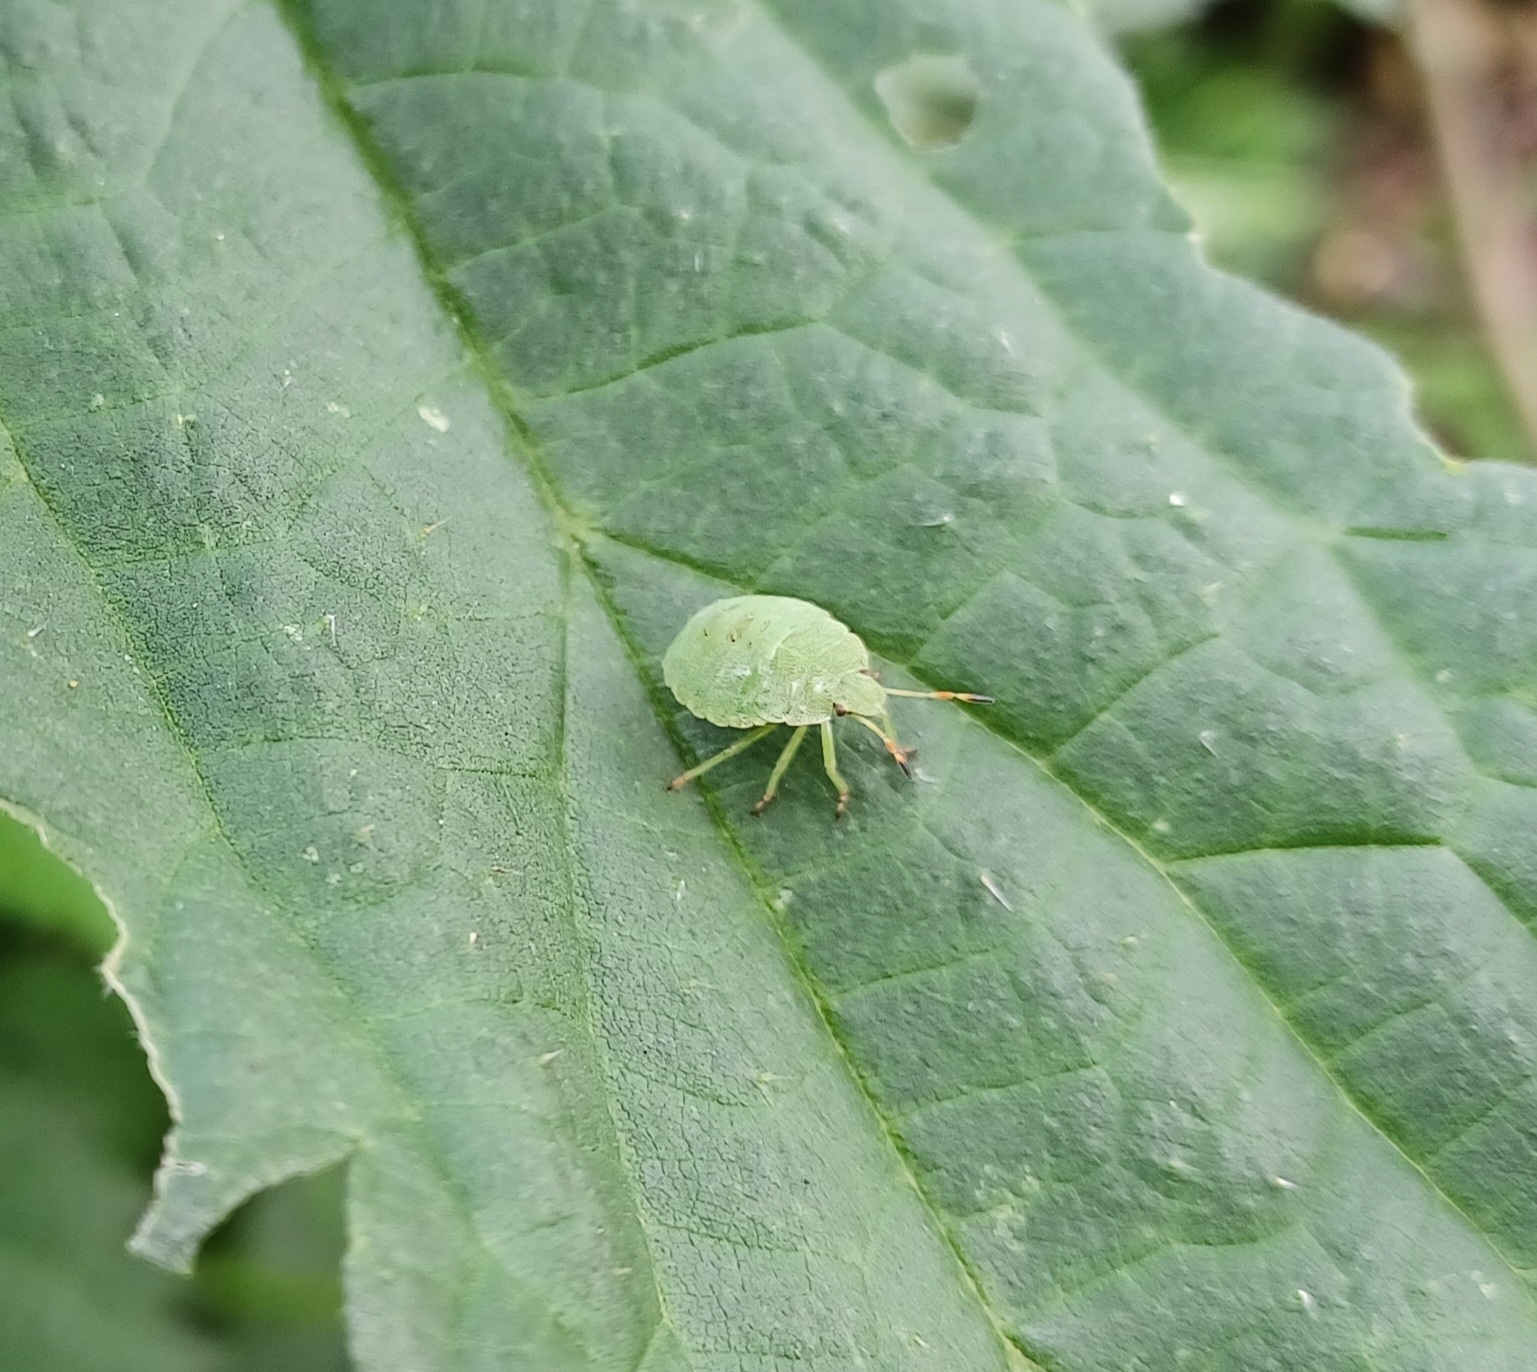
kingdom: Animalia
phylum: Arthropoda
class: Insecta
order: Hemiptera
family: Pentatomidae
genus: Palomena
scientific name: Palomena prasina
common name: Green shieldbug
